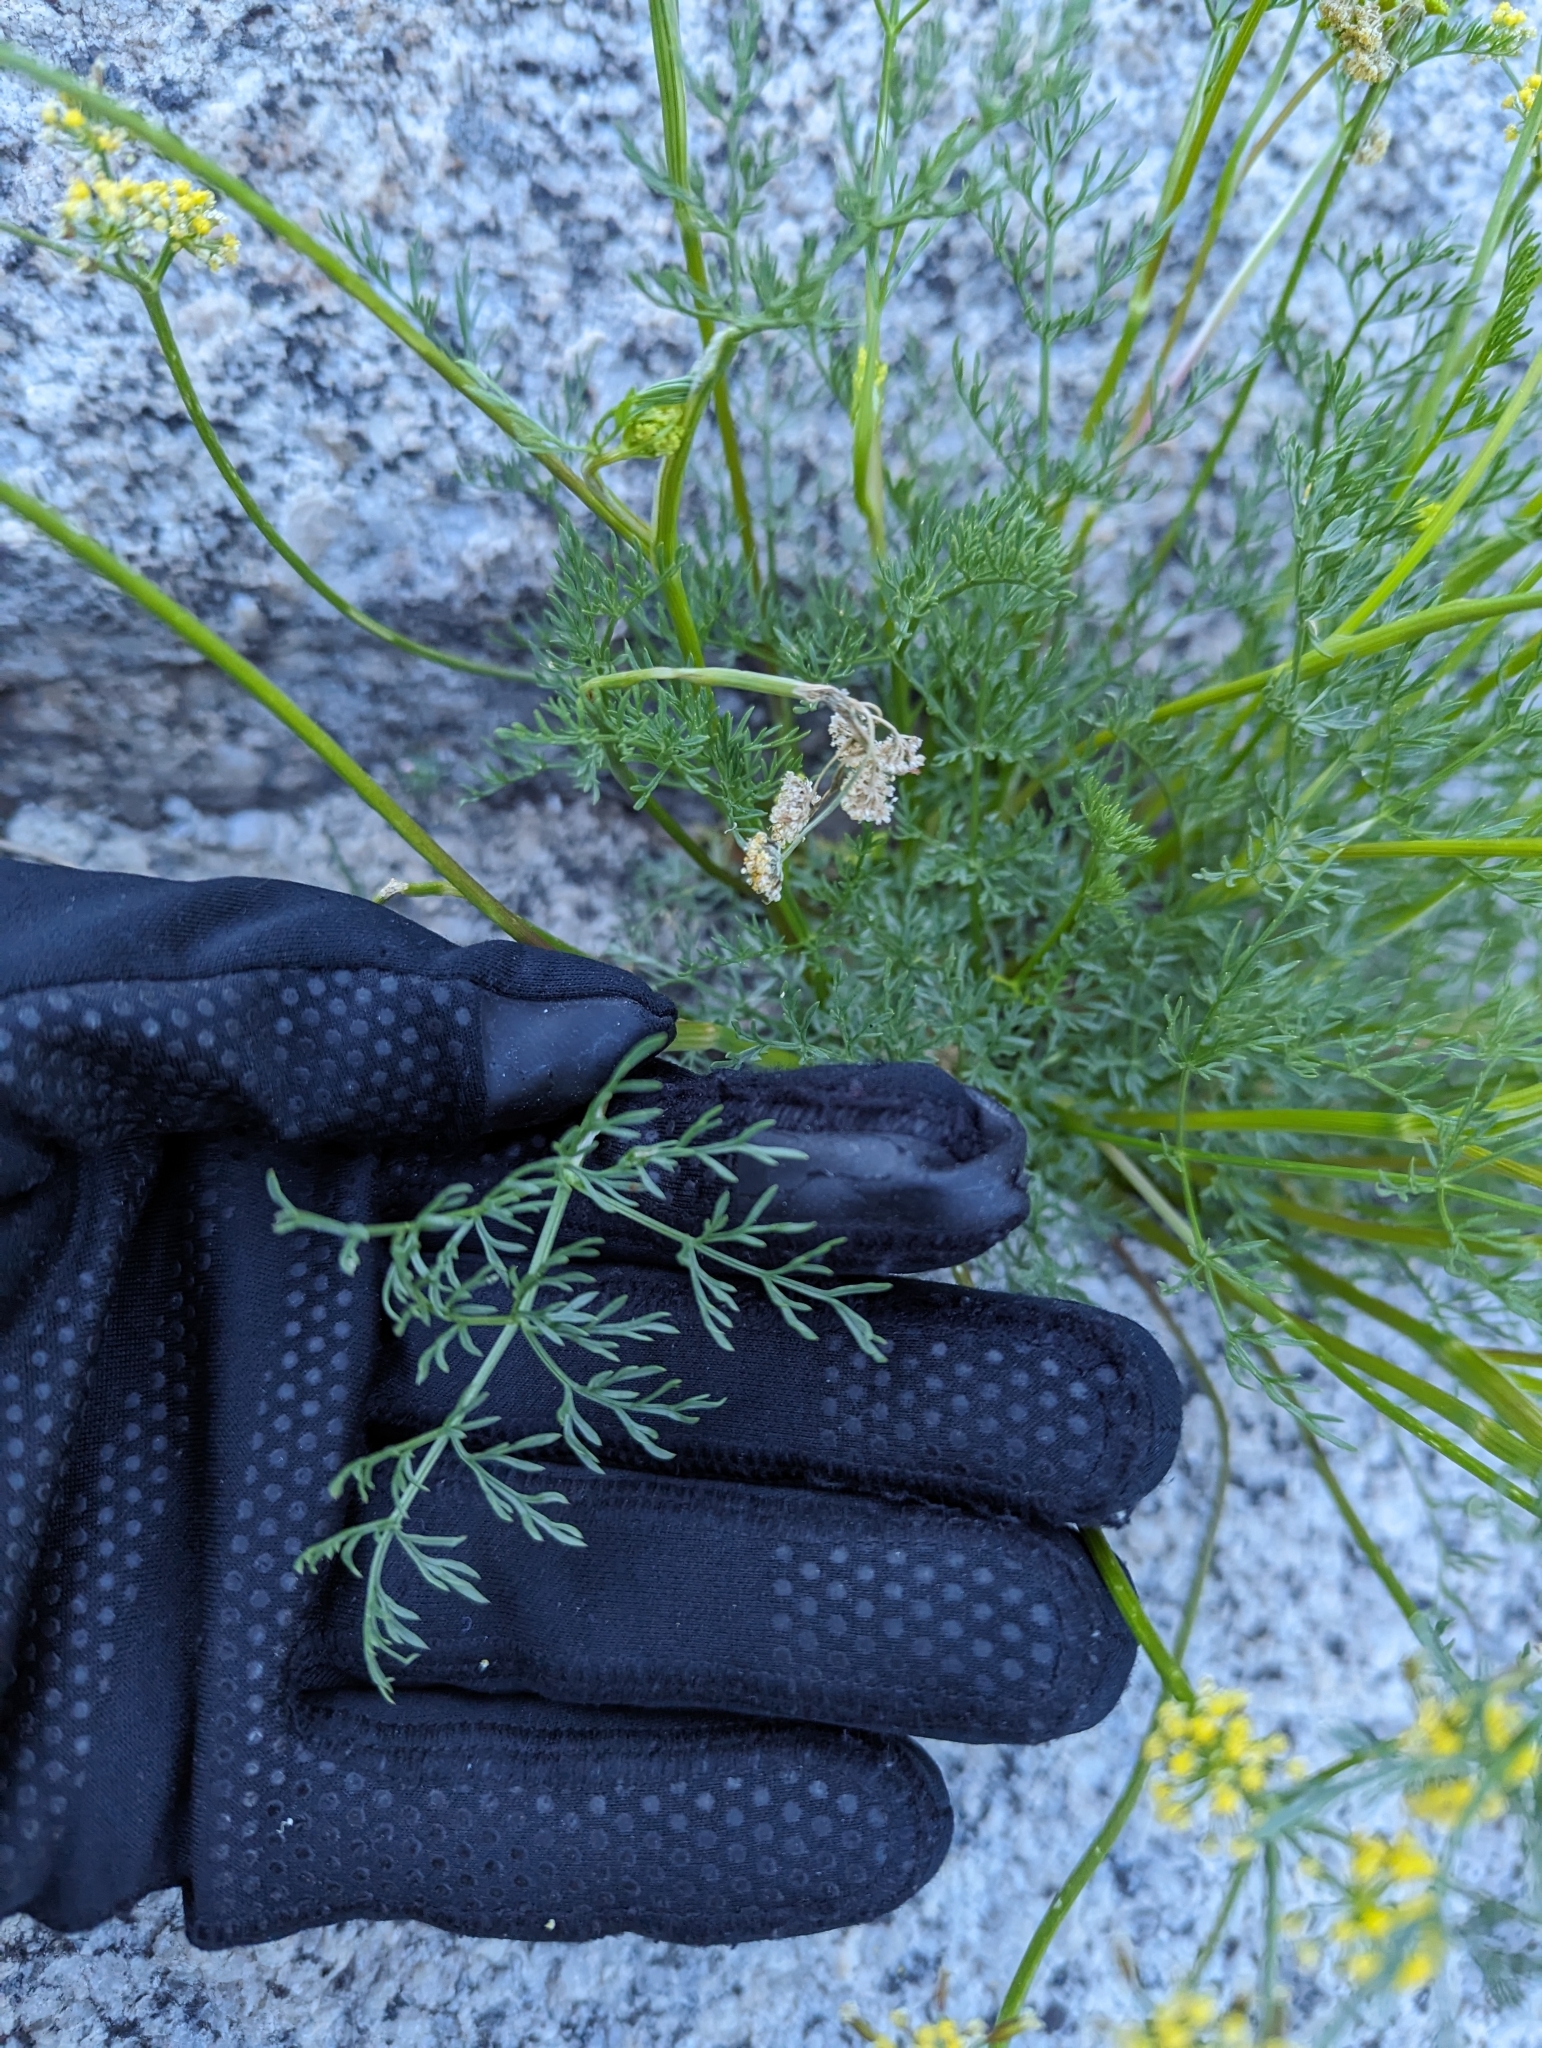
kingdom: Plantae
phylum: Tracheophyta
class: Magnoliopsida
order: Apiales
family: Apiaceae
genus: Pteryxia
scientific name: Pteryxia terebinthina
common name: Turpentine wavewing
